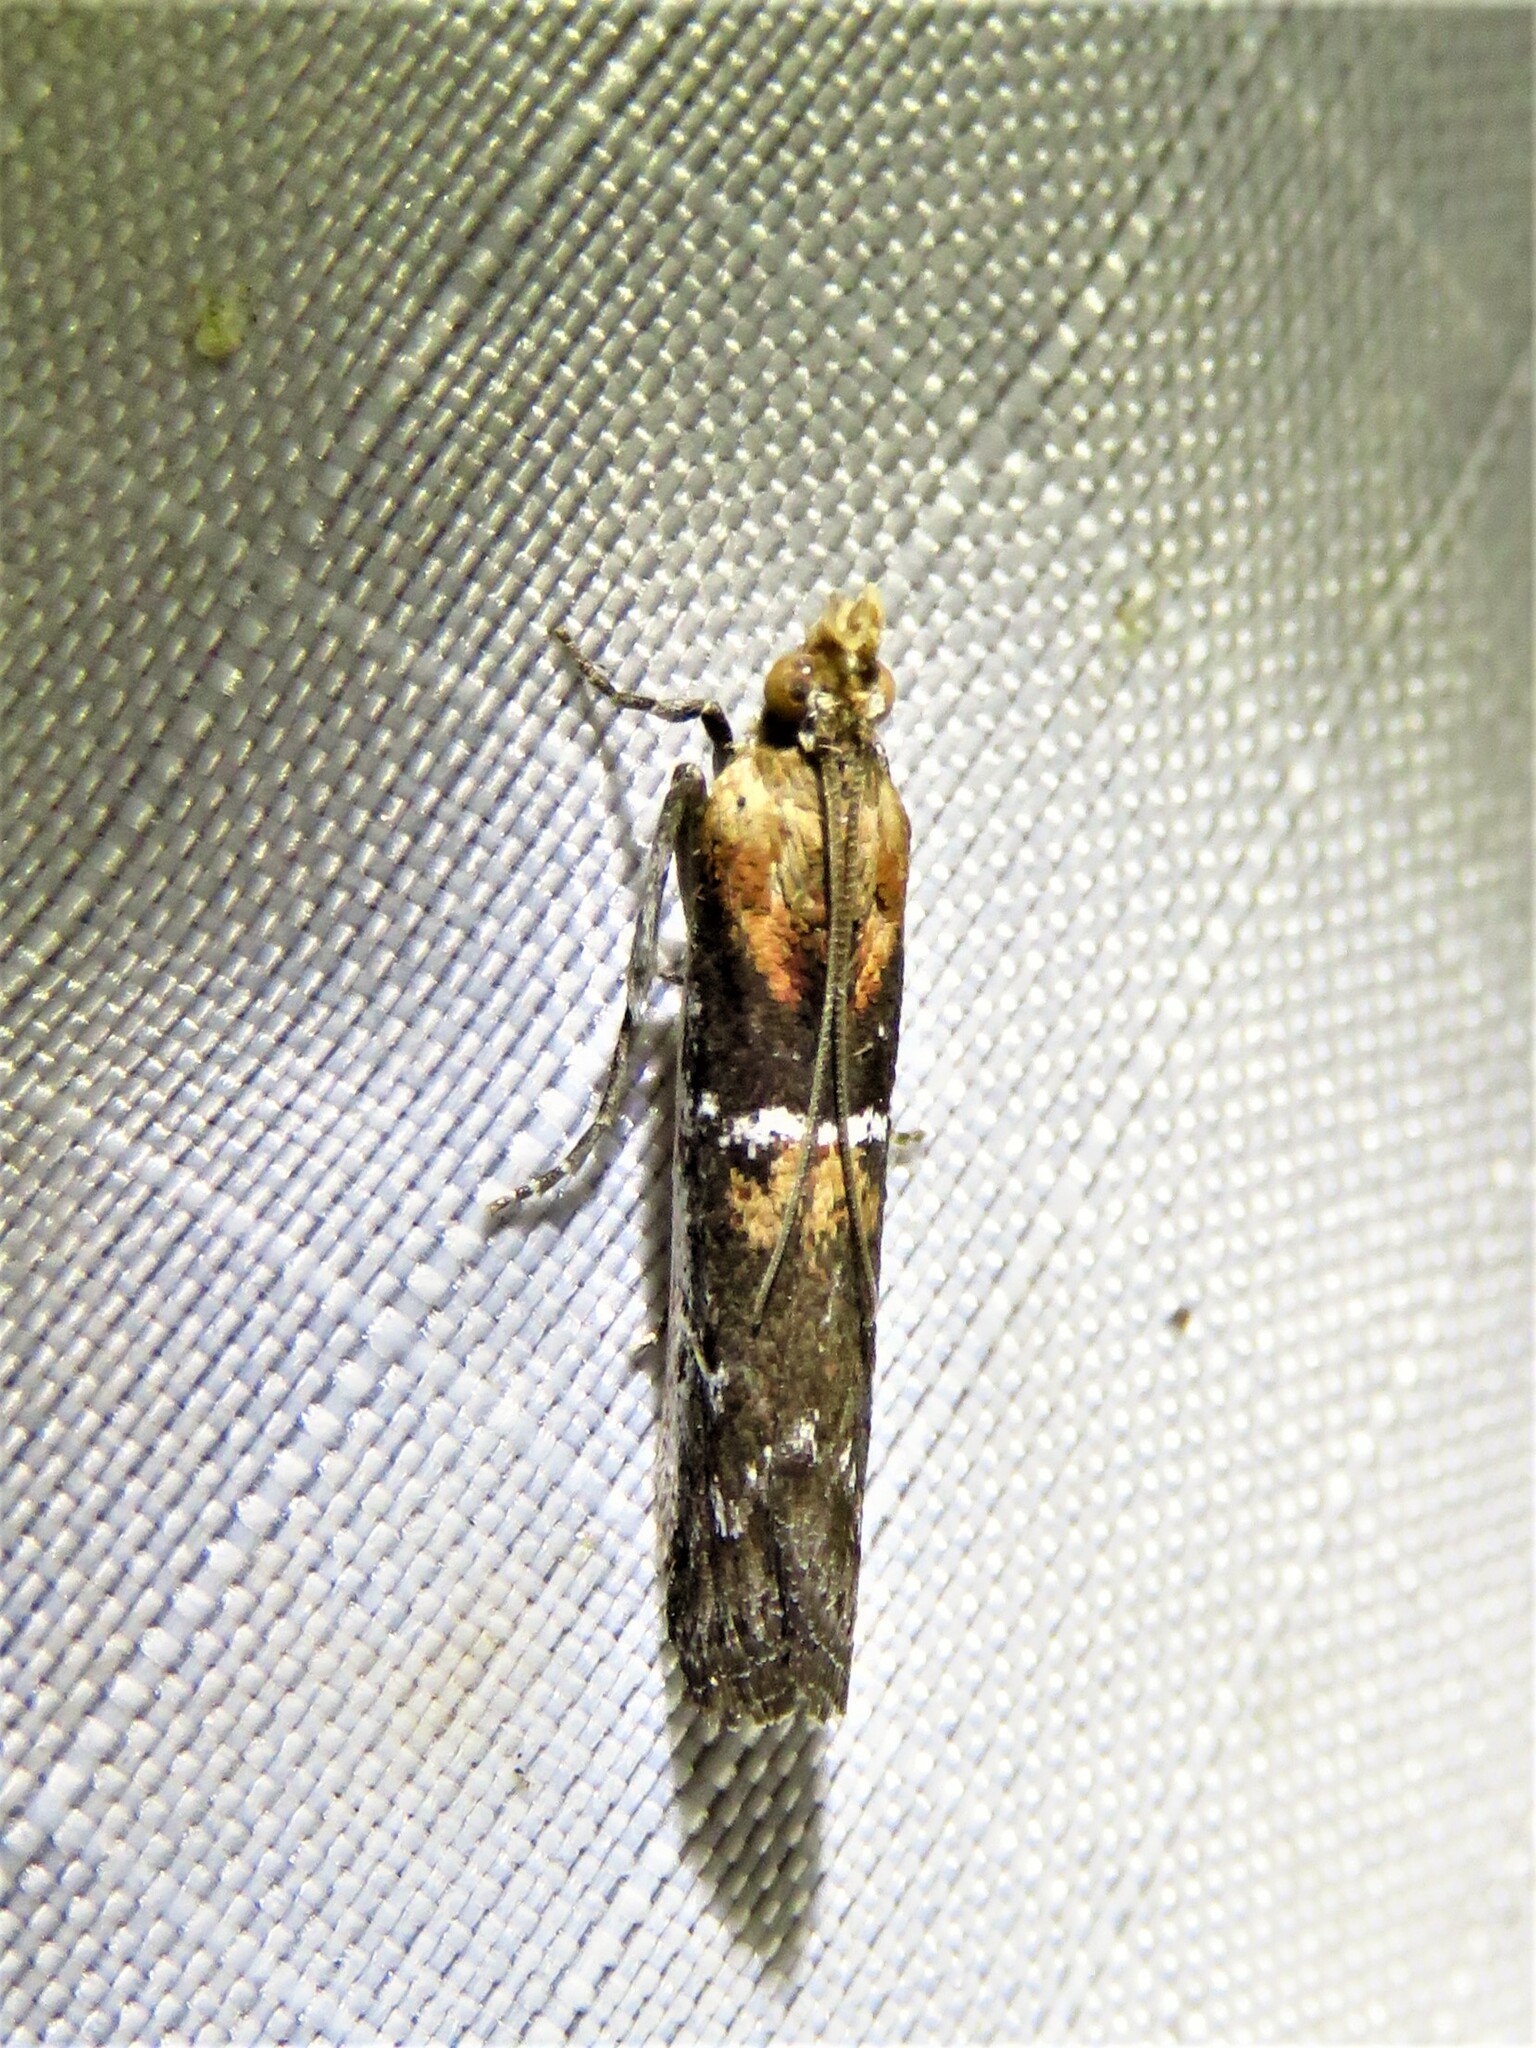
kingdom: Animalia
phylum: Arthropoda
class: Insecta
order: Lepidoptera
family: Pyralidae
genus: Honora
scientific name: Honora mellinella
